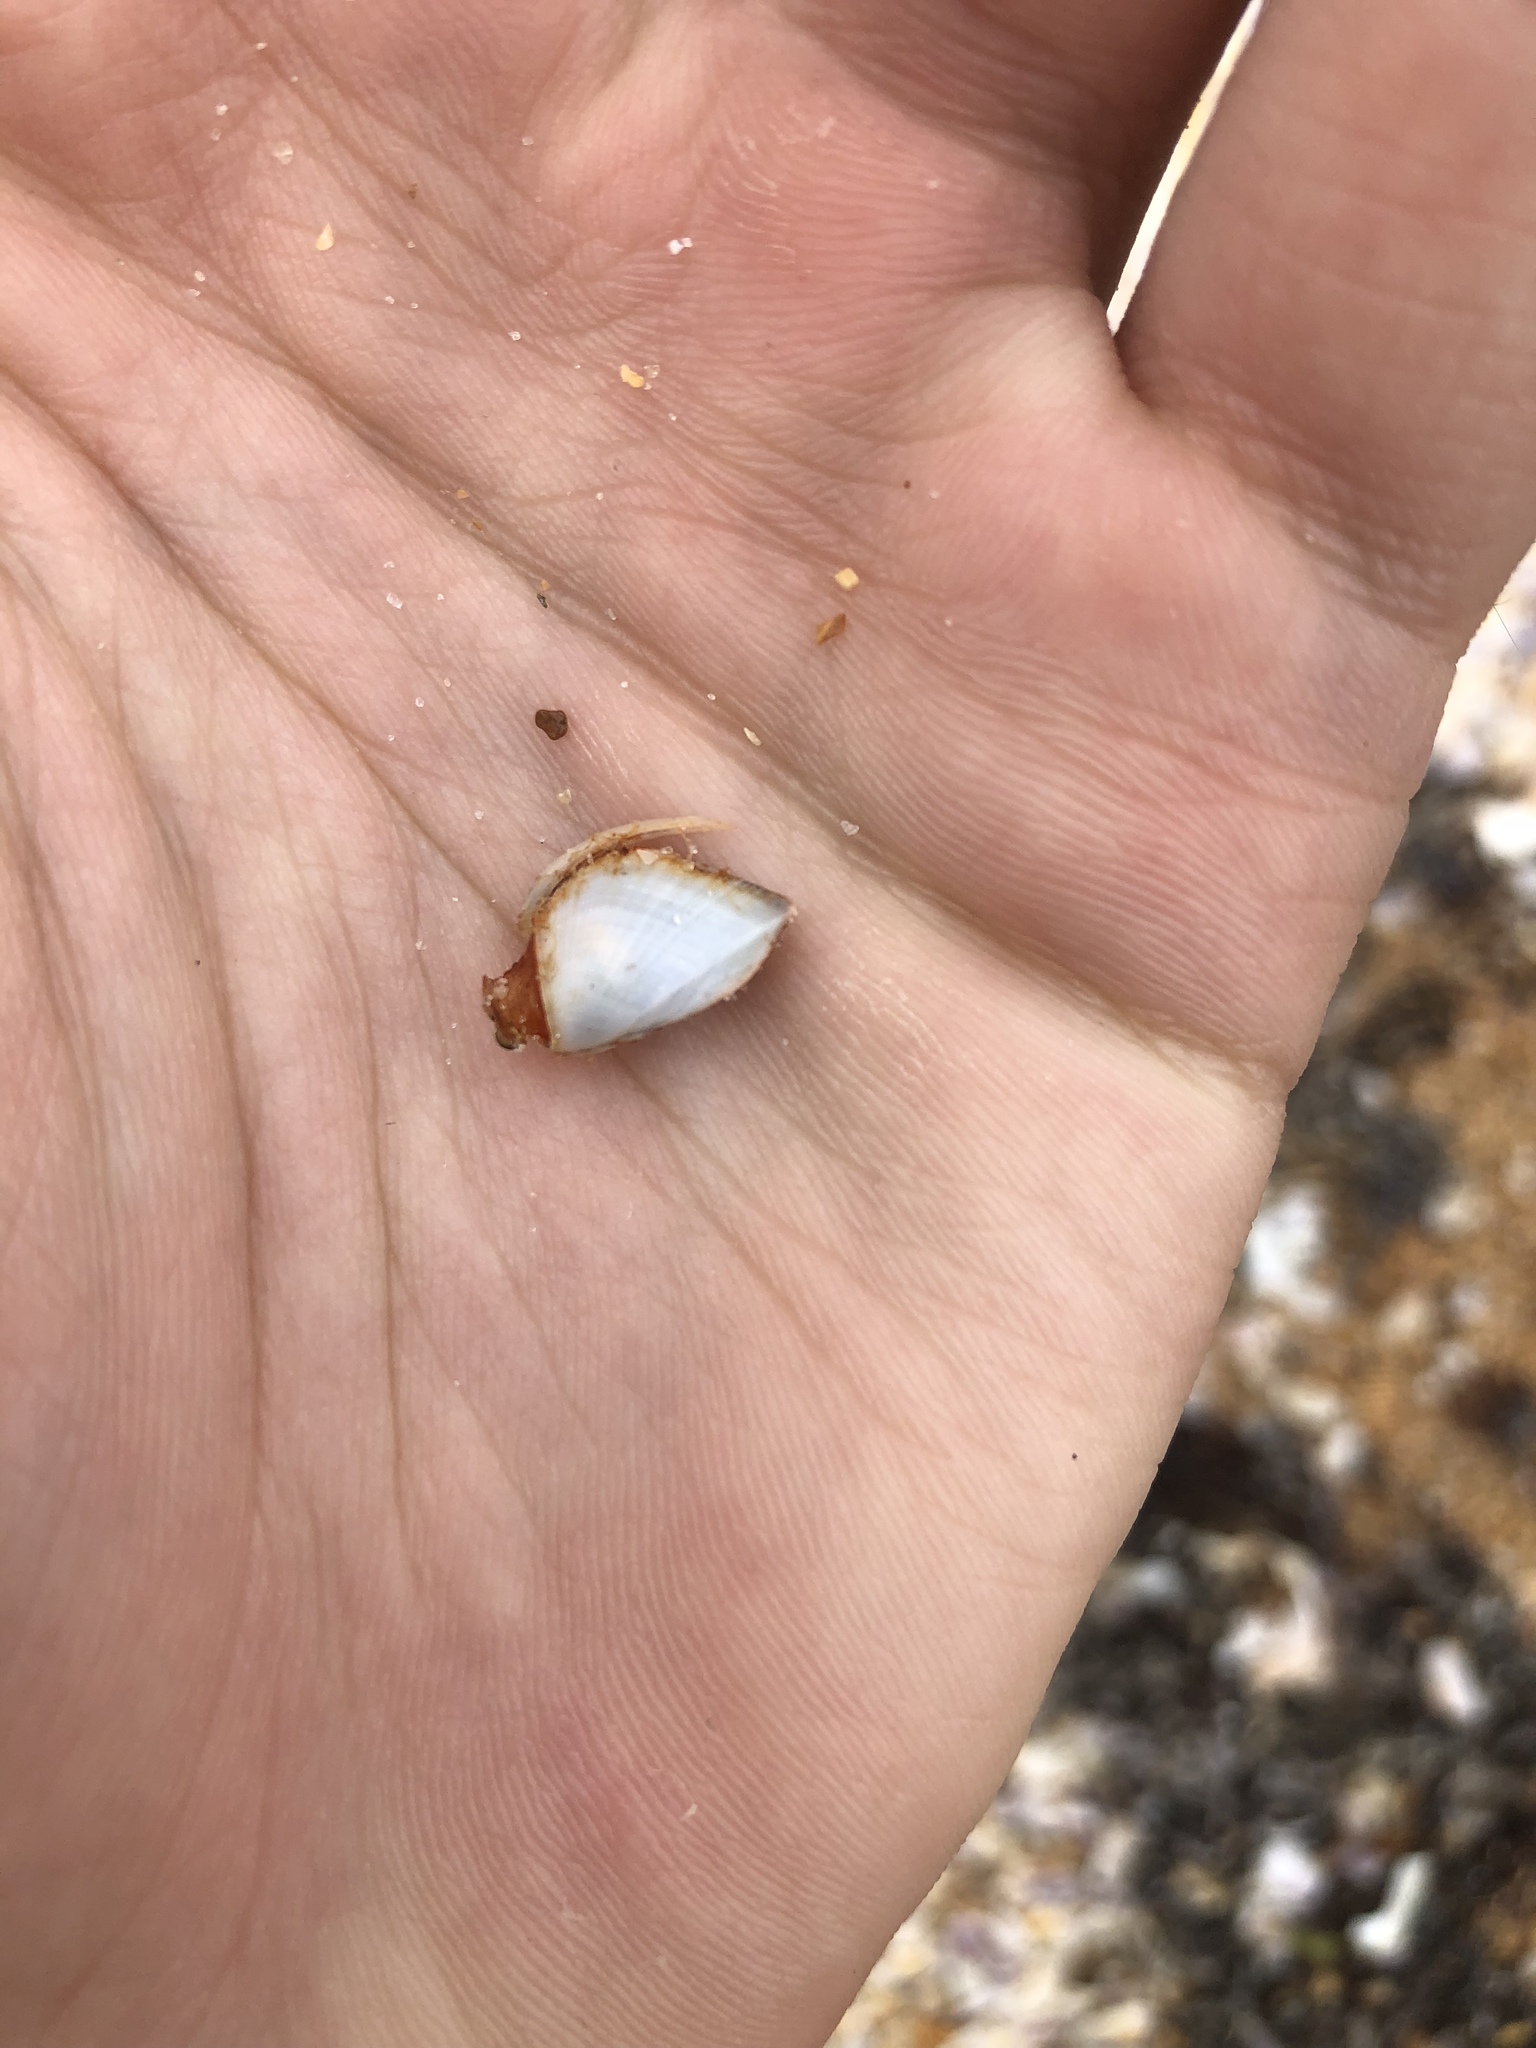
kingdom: Animalia
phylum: Arthropoda
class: Maxillopoda
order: Pedunculata
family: Lepadidae
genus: Lepas
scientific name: Lepas anserifera
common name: Goose barnacle
